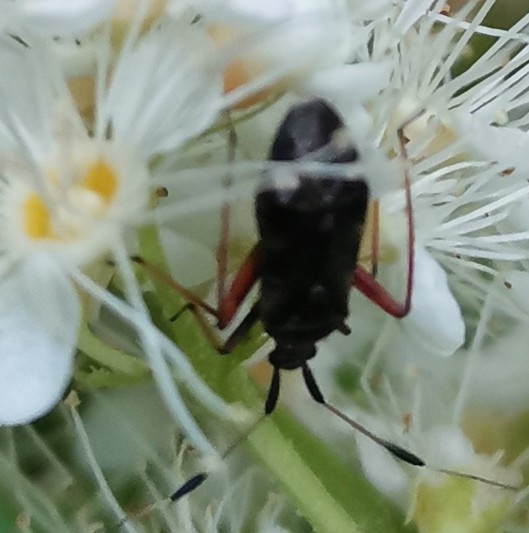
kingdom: Animalia
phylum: Arthropoda
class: Insecta
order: Hemiptera
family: Miridae
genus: Closterotomus
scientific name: Closterotomus biclavatus
